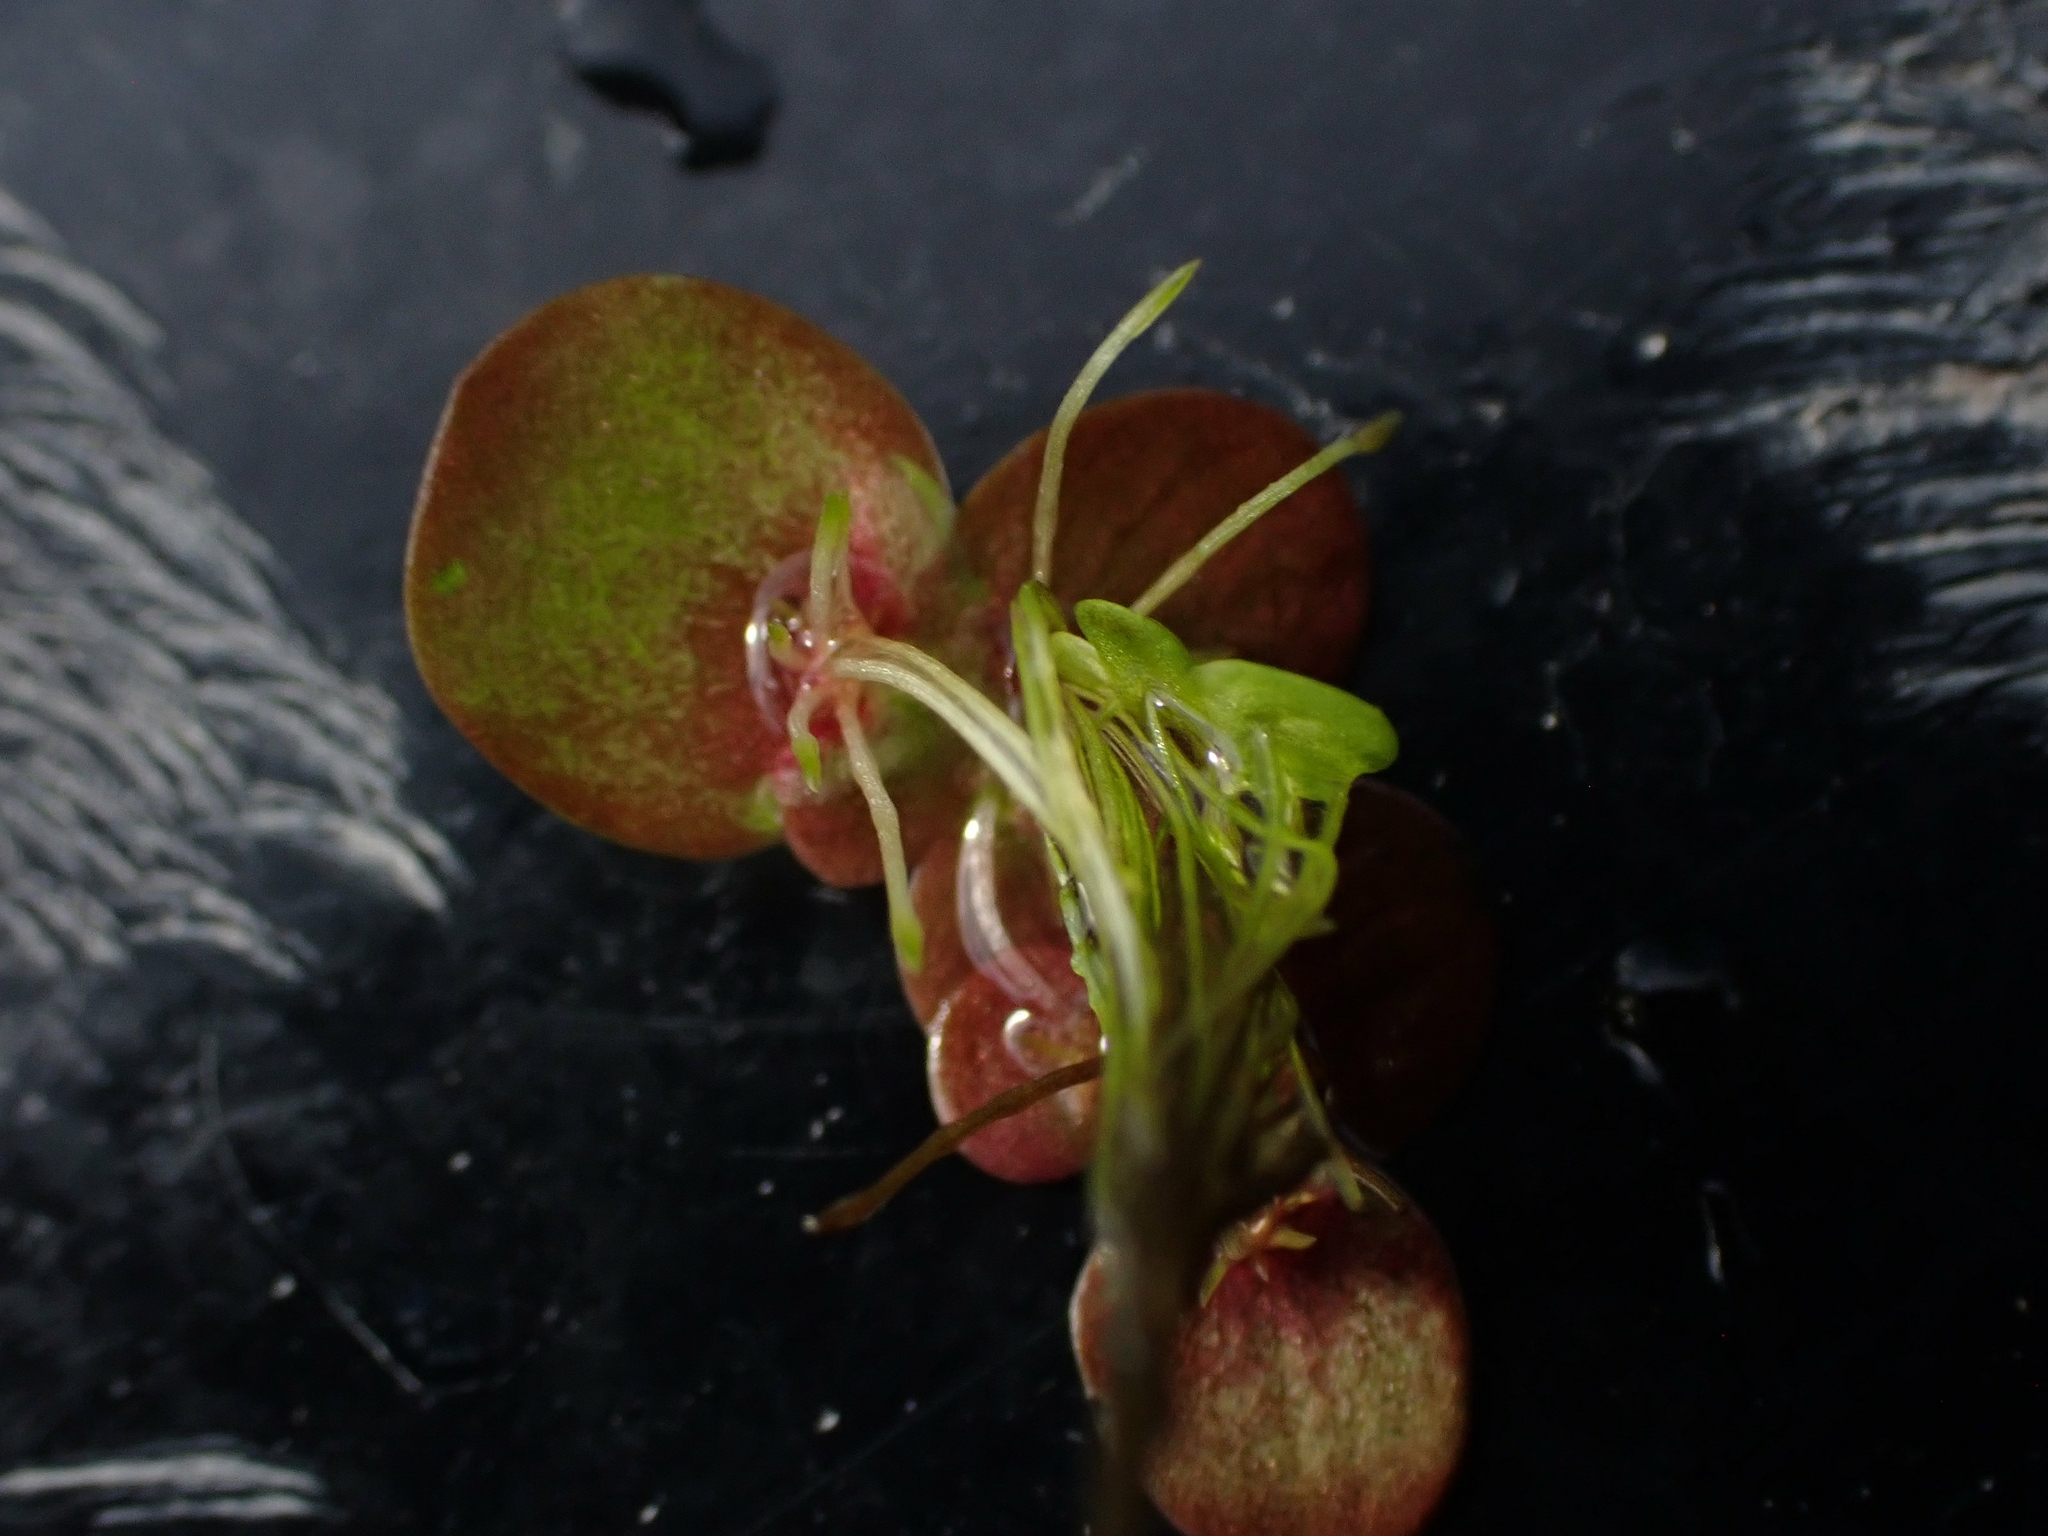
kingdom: Plantae
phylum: Tracheophyta
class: Liliopsida
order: Alismatales
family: Araceae
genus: Spirodela
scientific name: Spirodela polyrhiza
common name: Great duckweed
